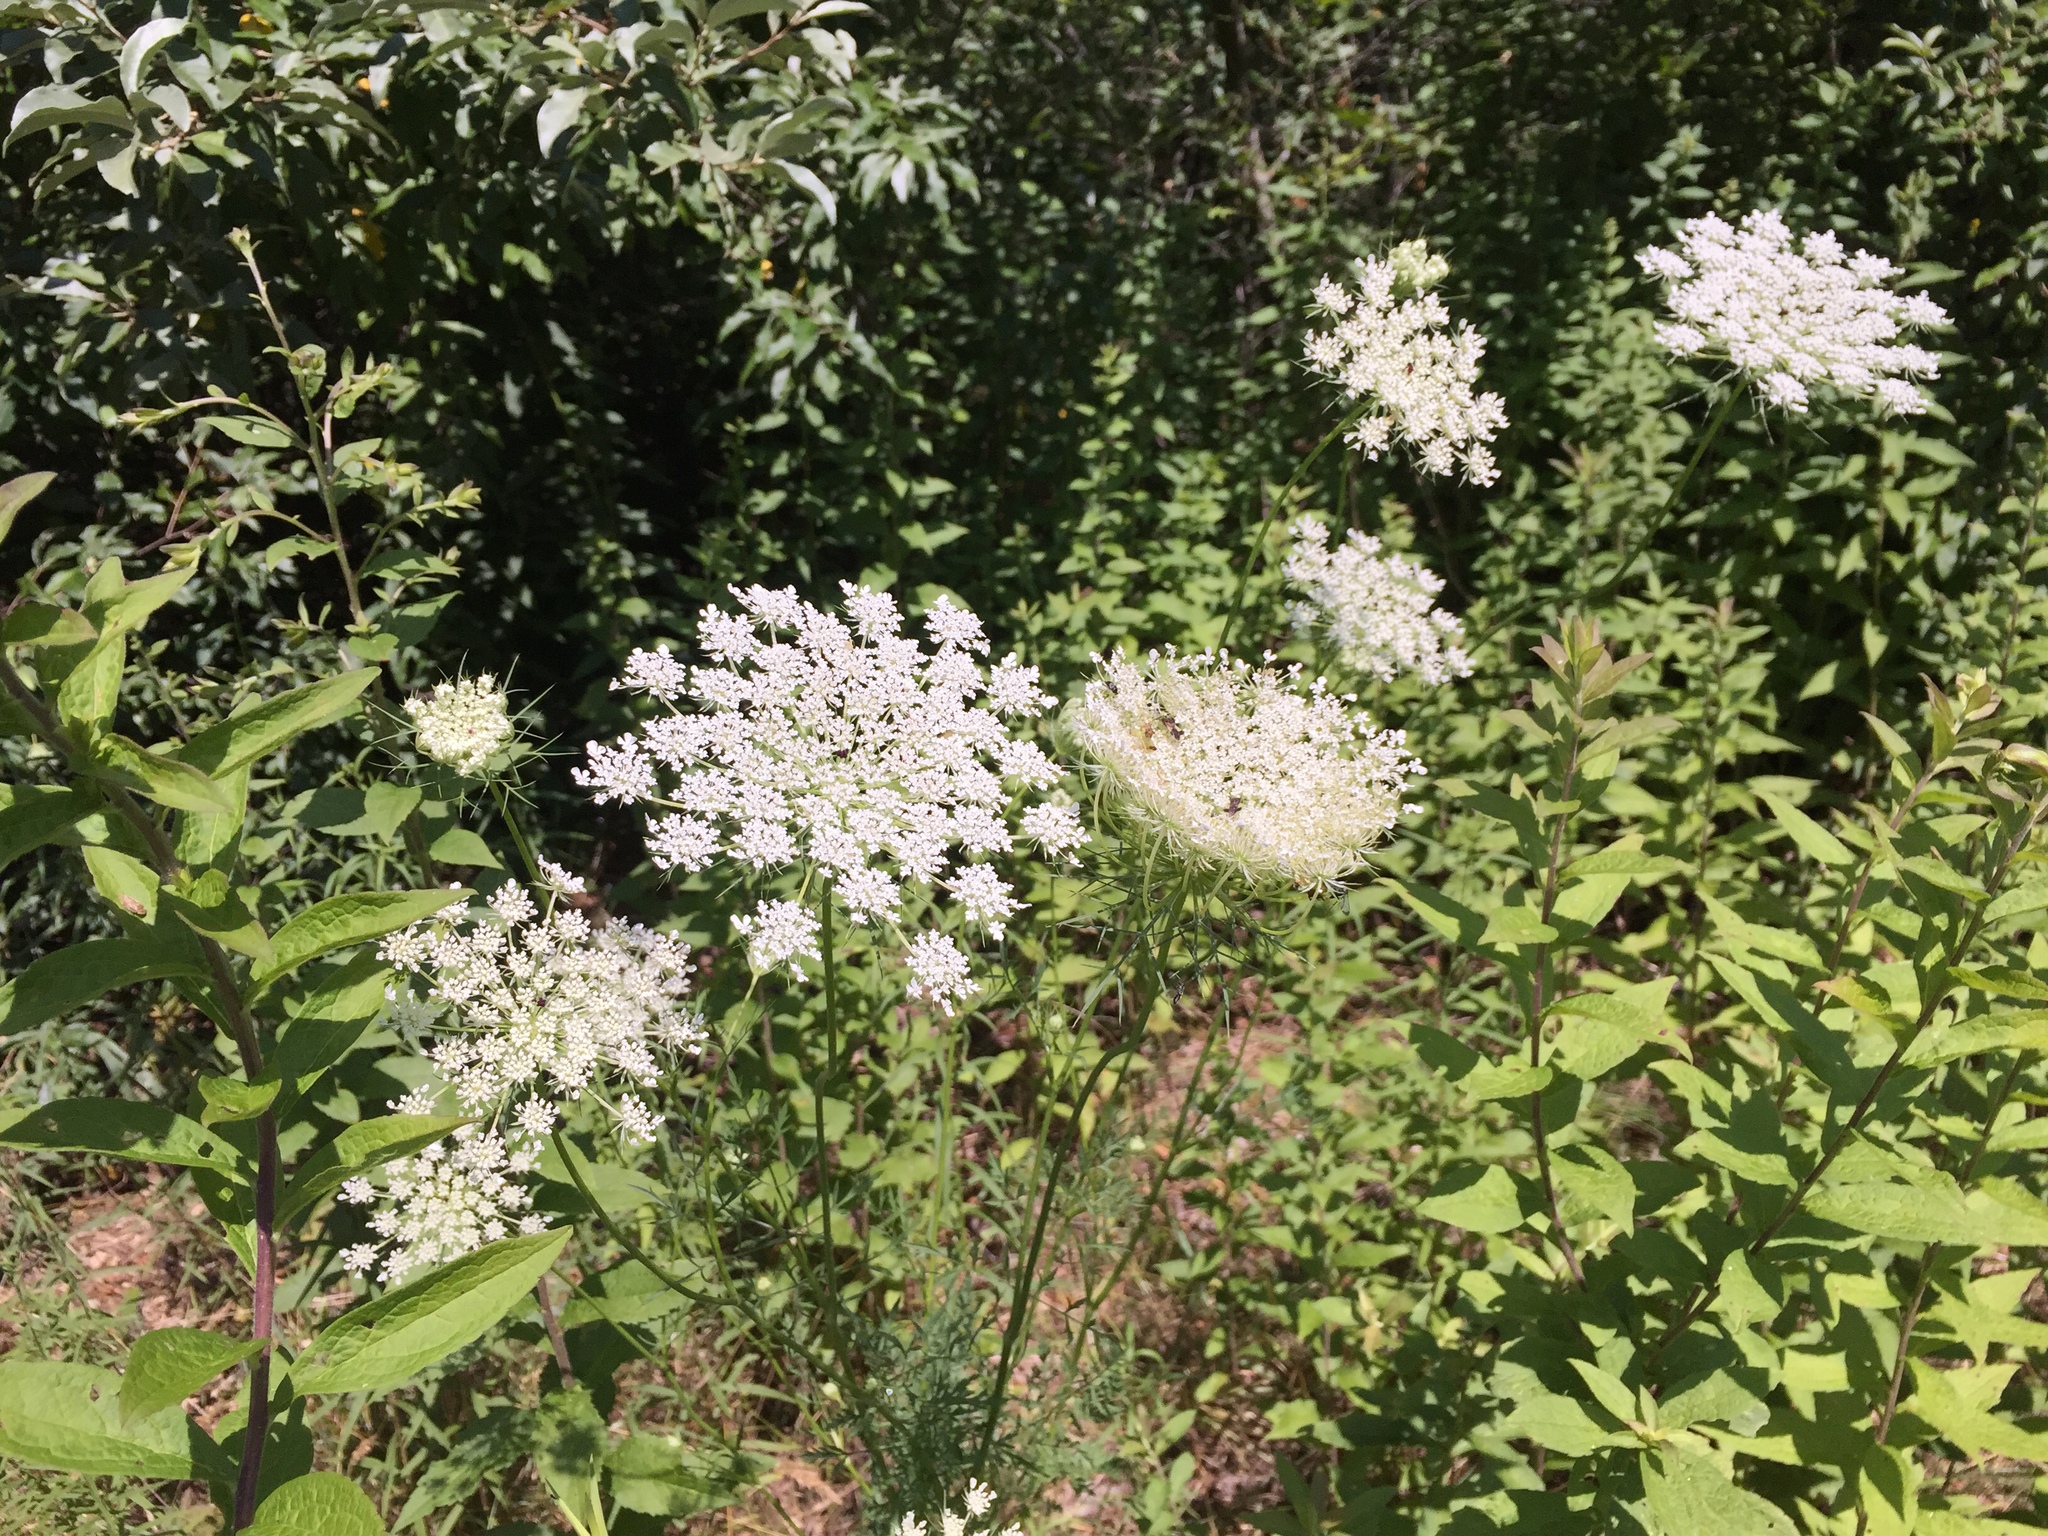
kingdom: Plantae
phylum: Tracheophyta
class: Magnoliopsida
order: Apiales
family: Apiaceae
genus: Daucus
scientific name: Daucus carota
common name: Wild carrot
